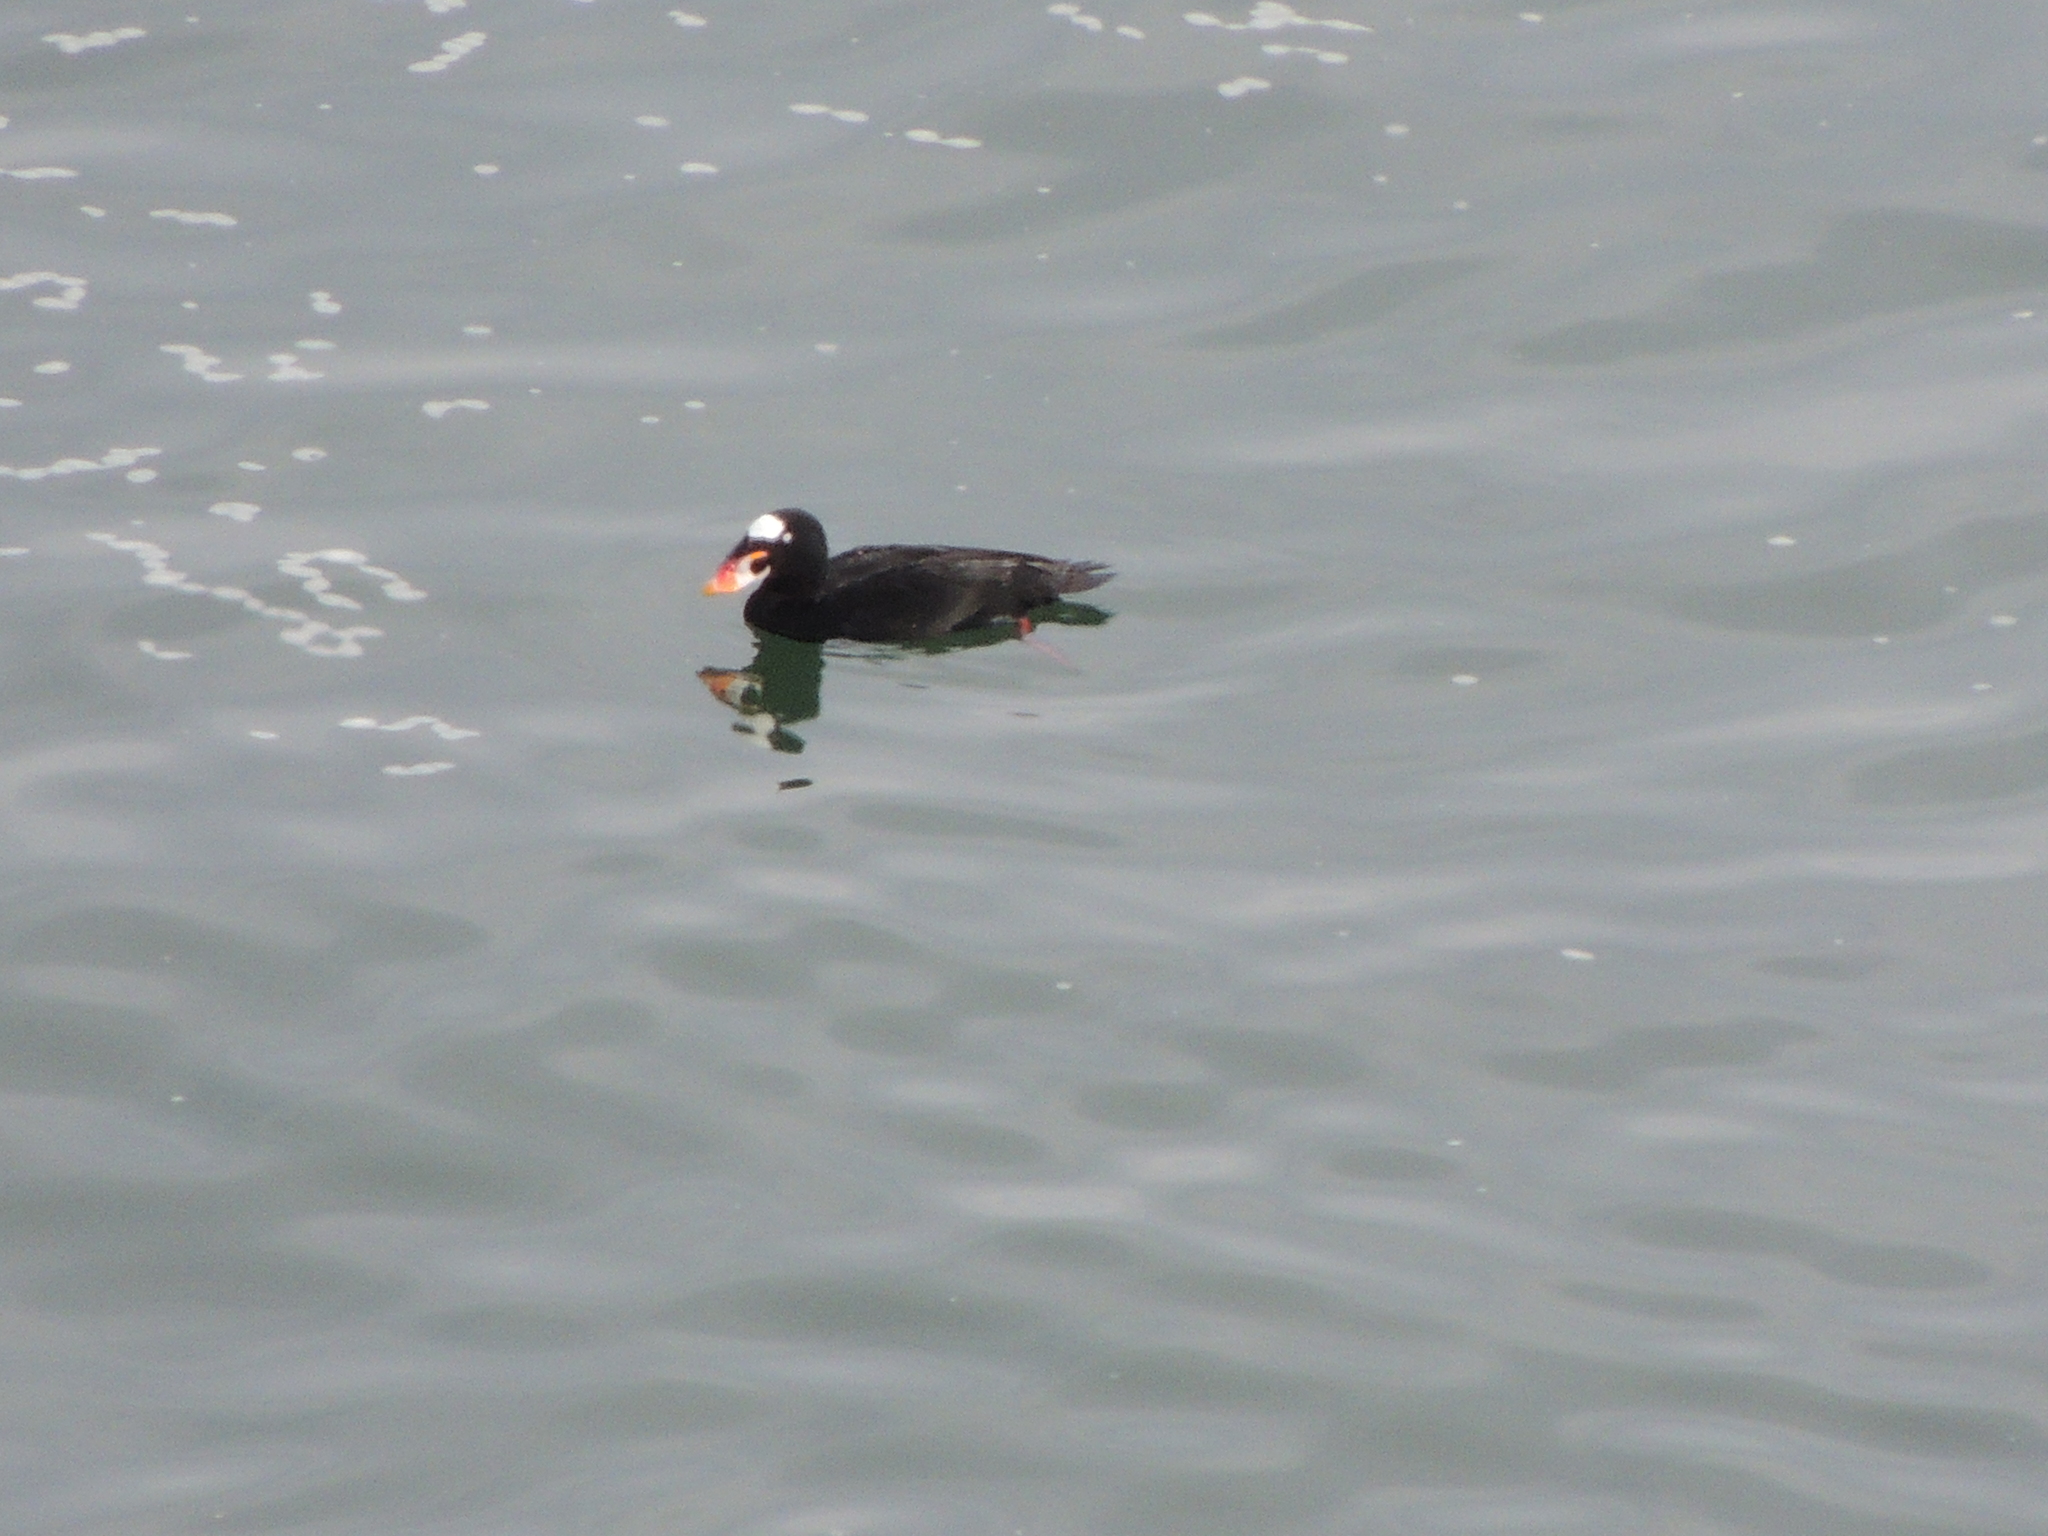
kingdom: Animalia
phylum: Chordata
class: Aves
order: Anseriformes
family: Anatidae
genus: Melanitta
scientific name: Melanitta perspicillata
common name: Surf scoter
